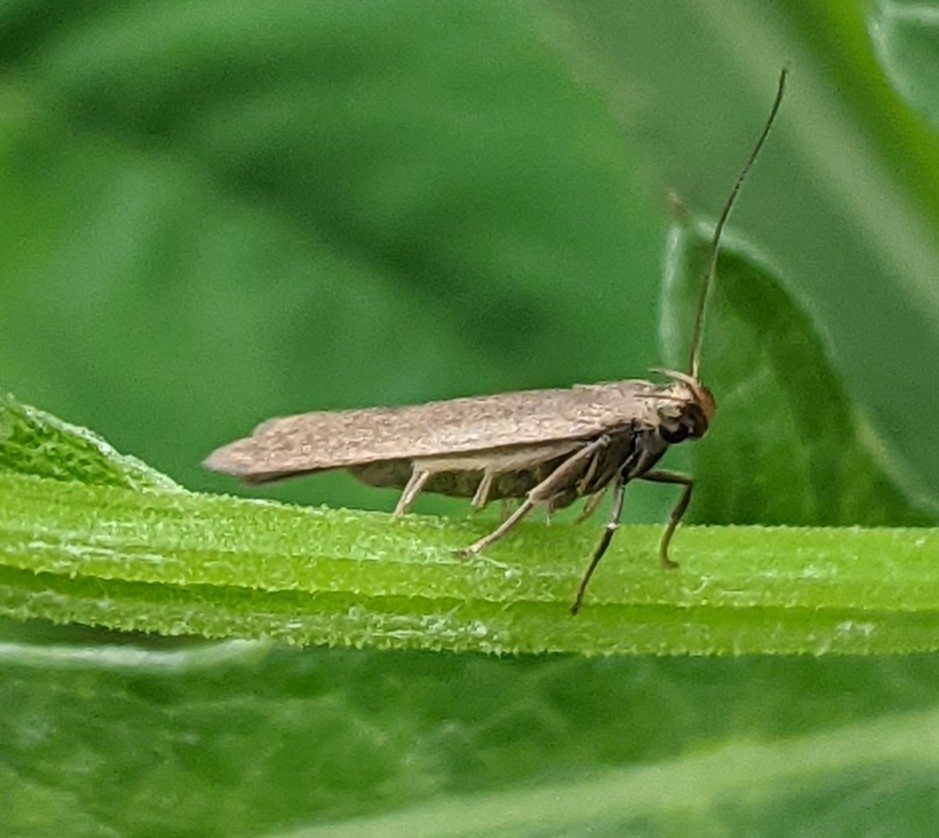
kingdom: Animalia
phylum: Arthropoda
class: Insecta
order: Lepidoptera
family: Gelechiidae
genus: Acompsia
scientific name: Acompsia cinerella
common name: Ash-coloured sober
